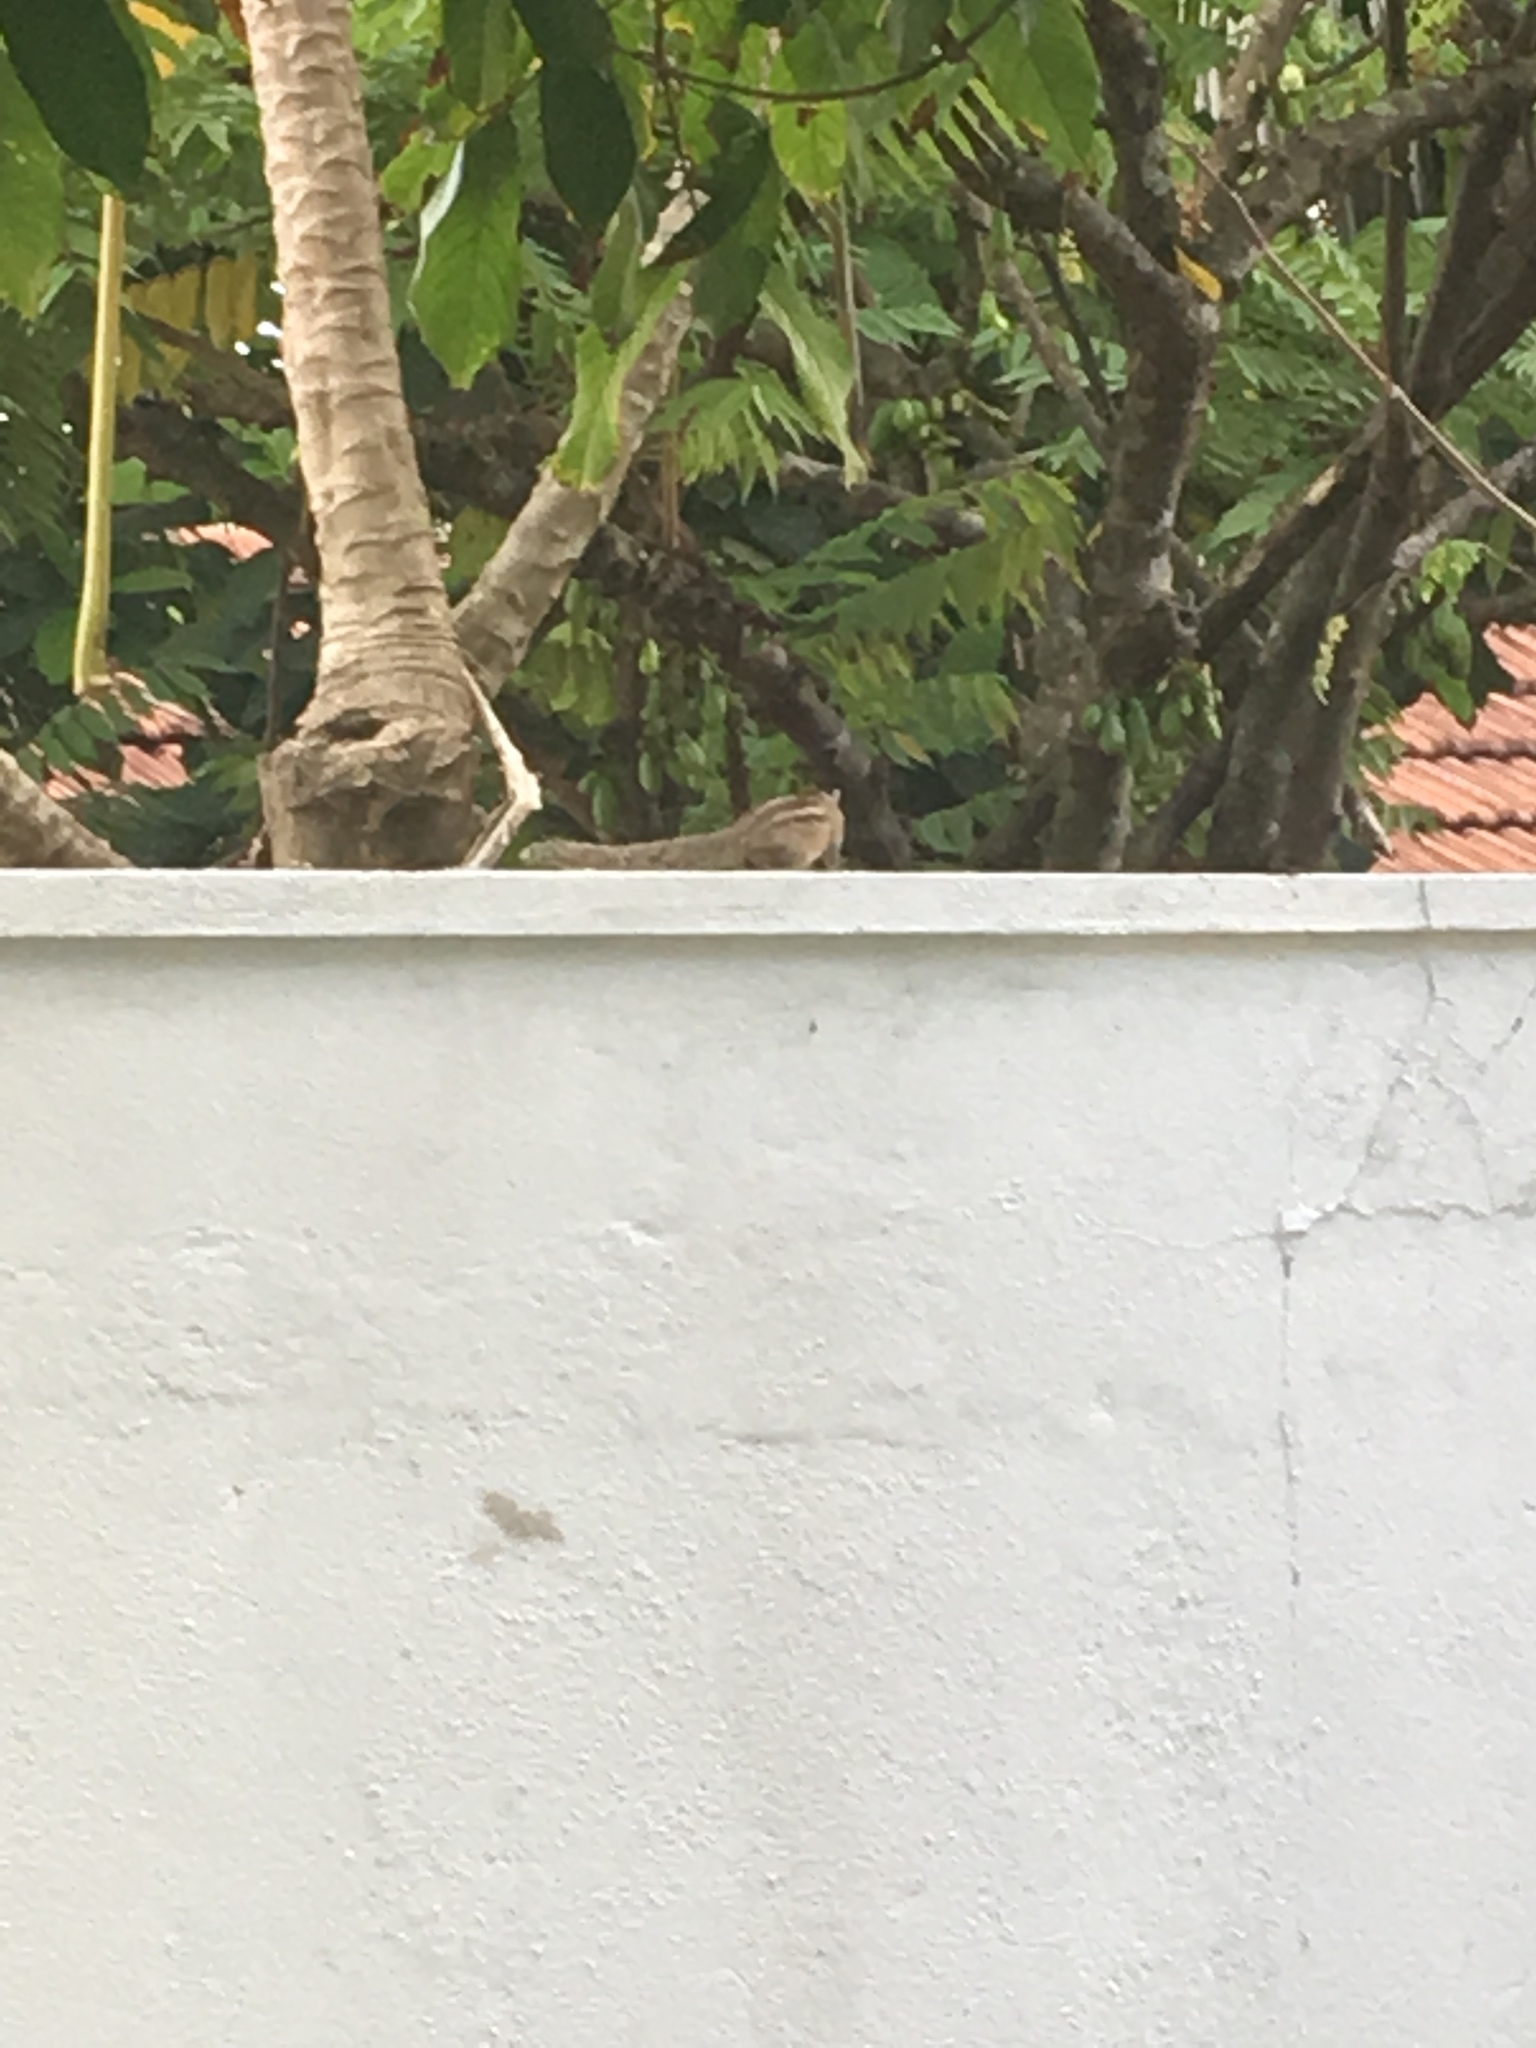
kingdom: Animalia
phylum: Chordata
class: Mammalia
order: Rodentia
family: Sciuridae
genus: Funambulus
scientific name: Funambulus palmarum
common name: Indian palm squirrel
